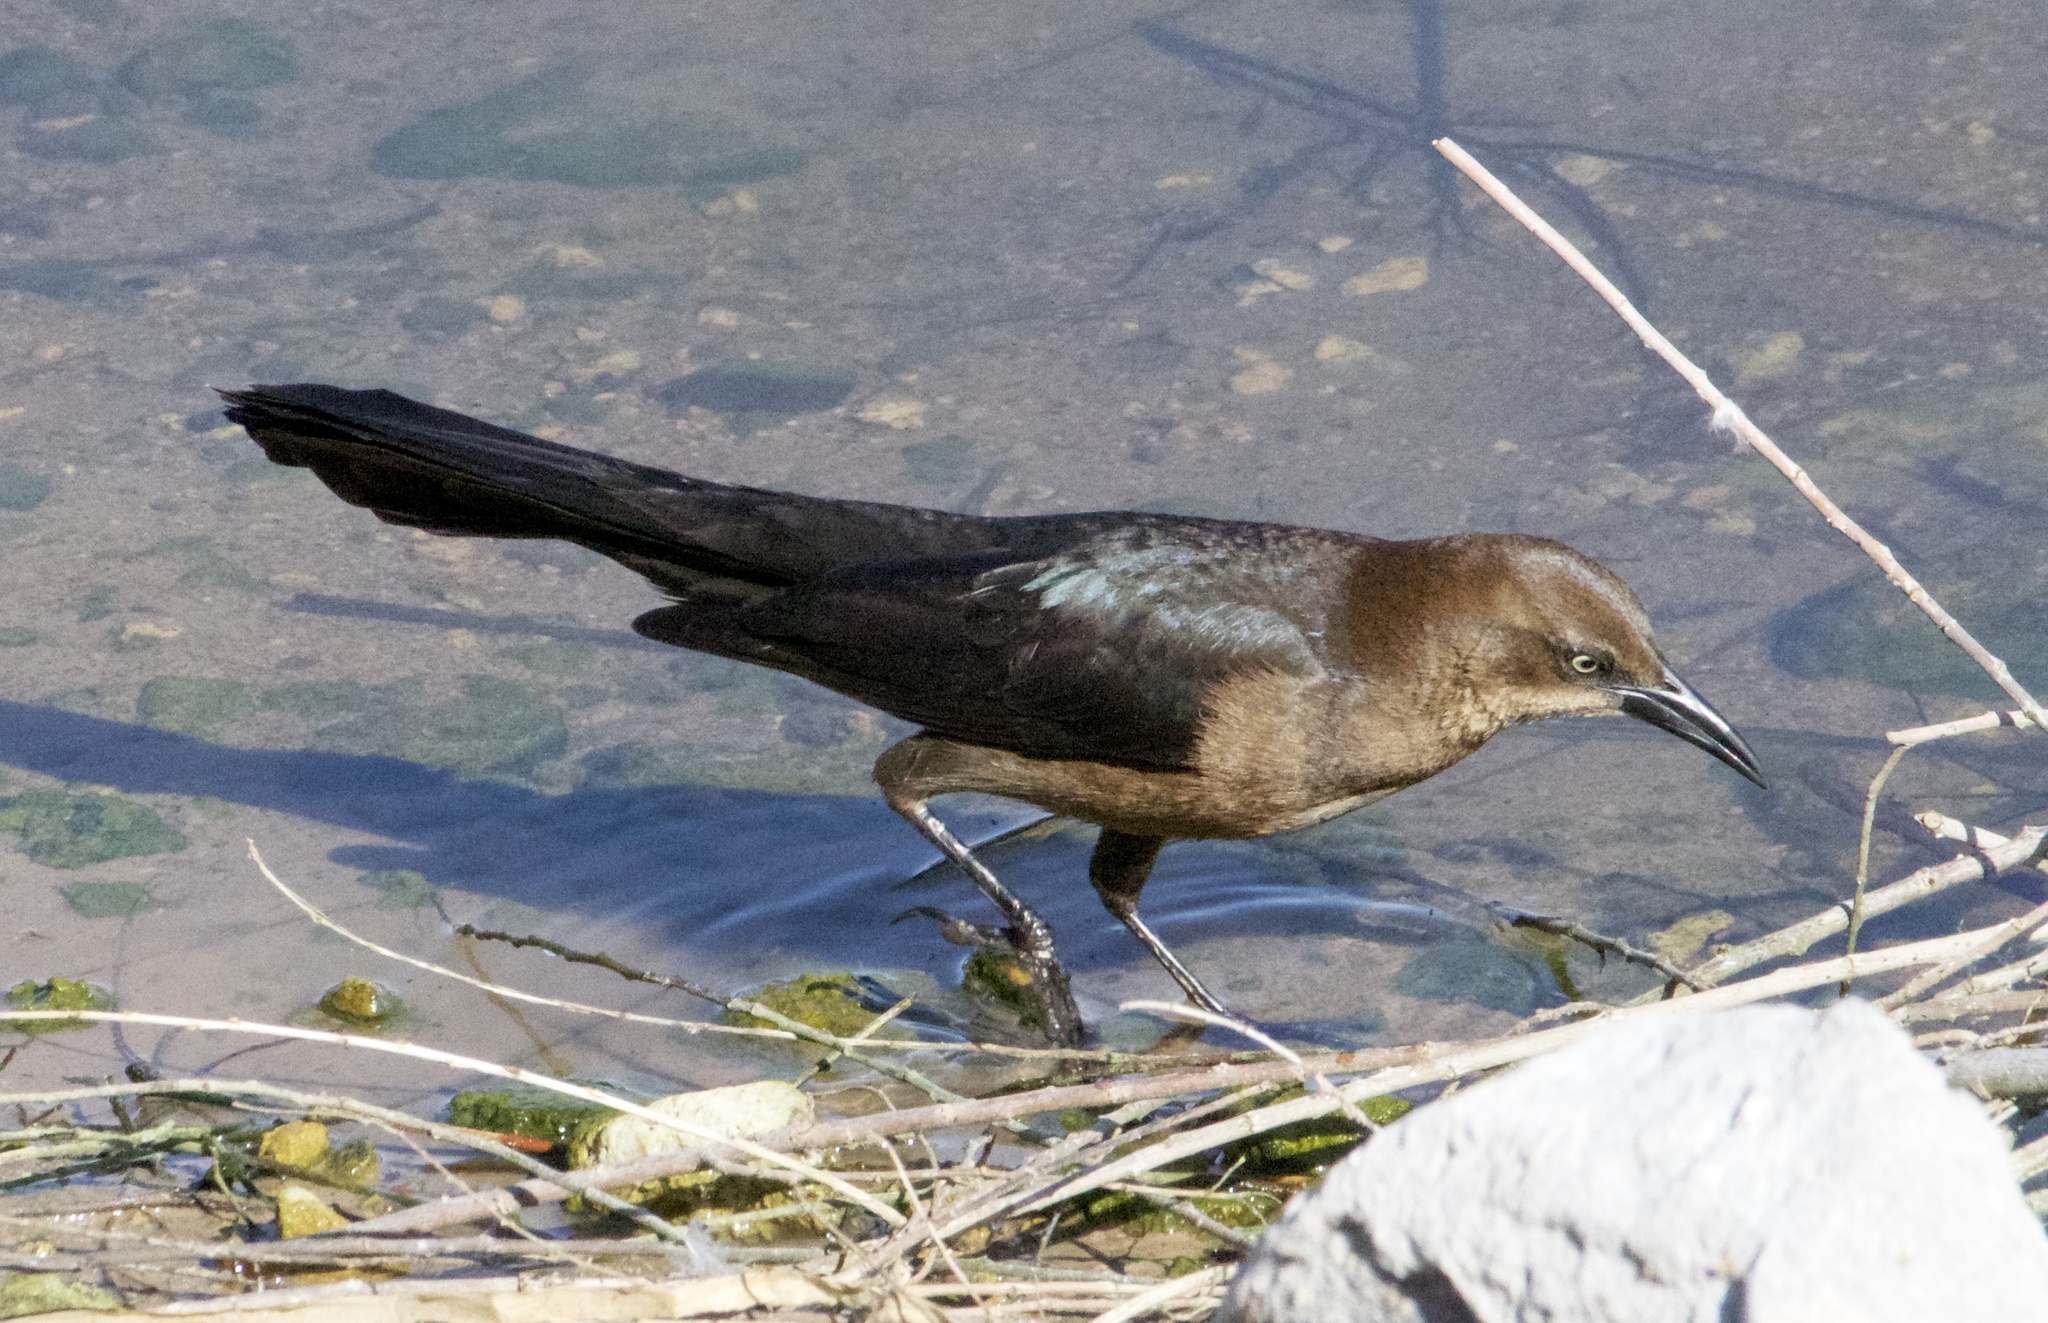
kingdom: Animalia
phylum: Chordata
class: Aves
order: Passeriformes
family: Icteridae
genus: Quiscalus
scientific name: Quiscalus mexicanus
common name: Great-tailed grackle
